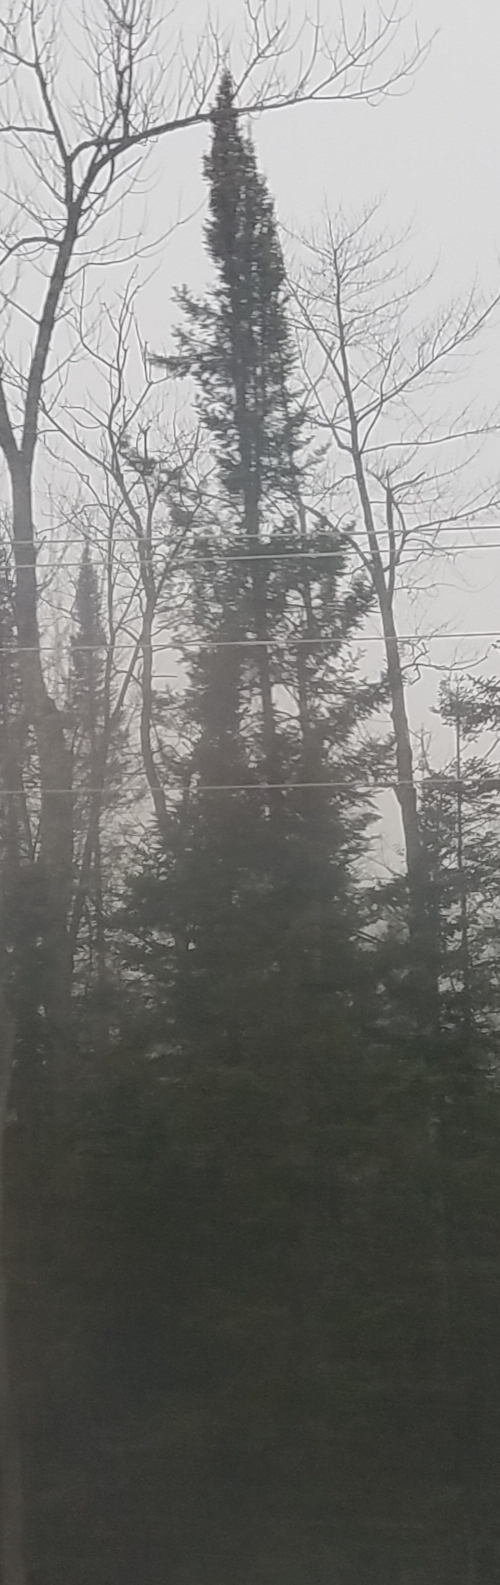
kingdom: Plantae
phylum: Tracheophyta
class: Pinopsida
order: Pinales
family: Pinaceae
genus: Picea
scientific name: Picea mariana
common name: Black spruce
